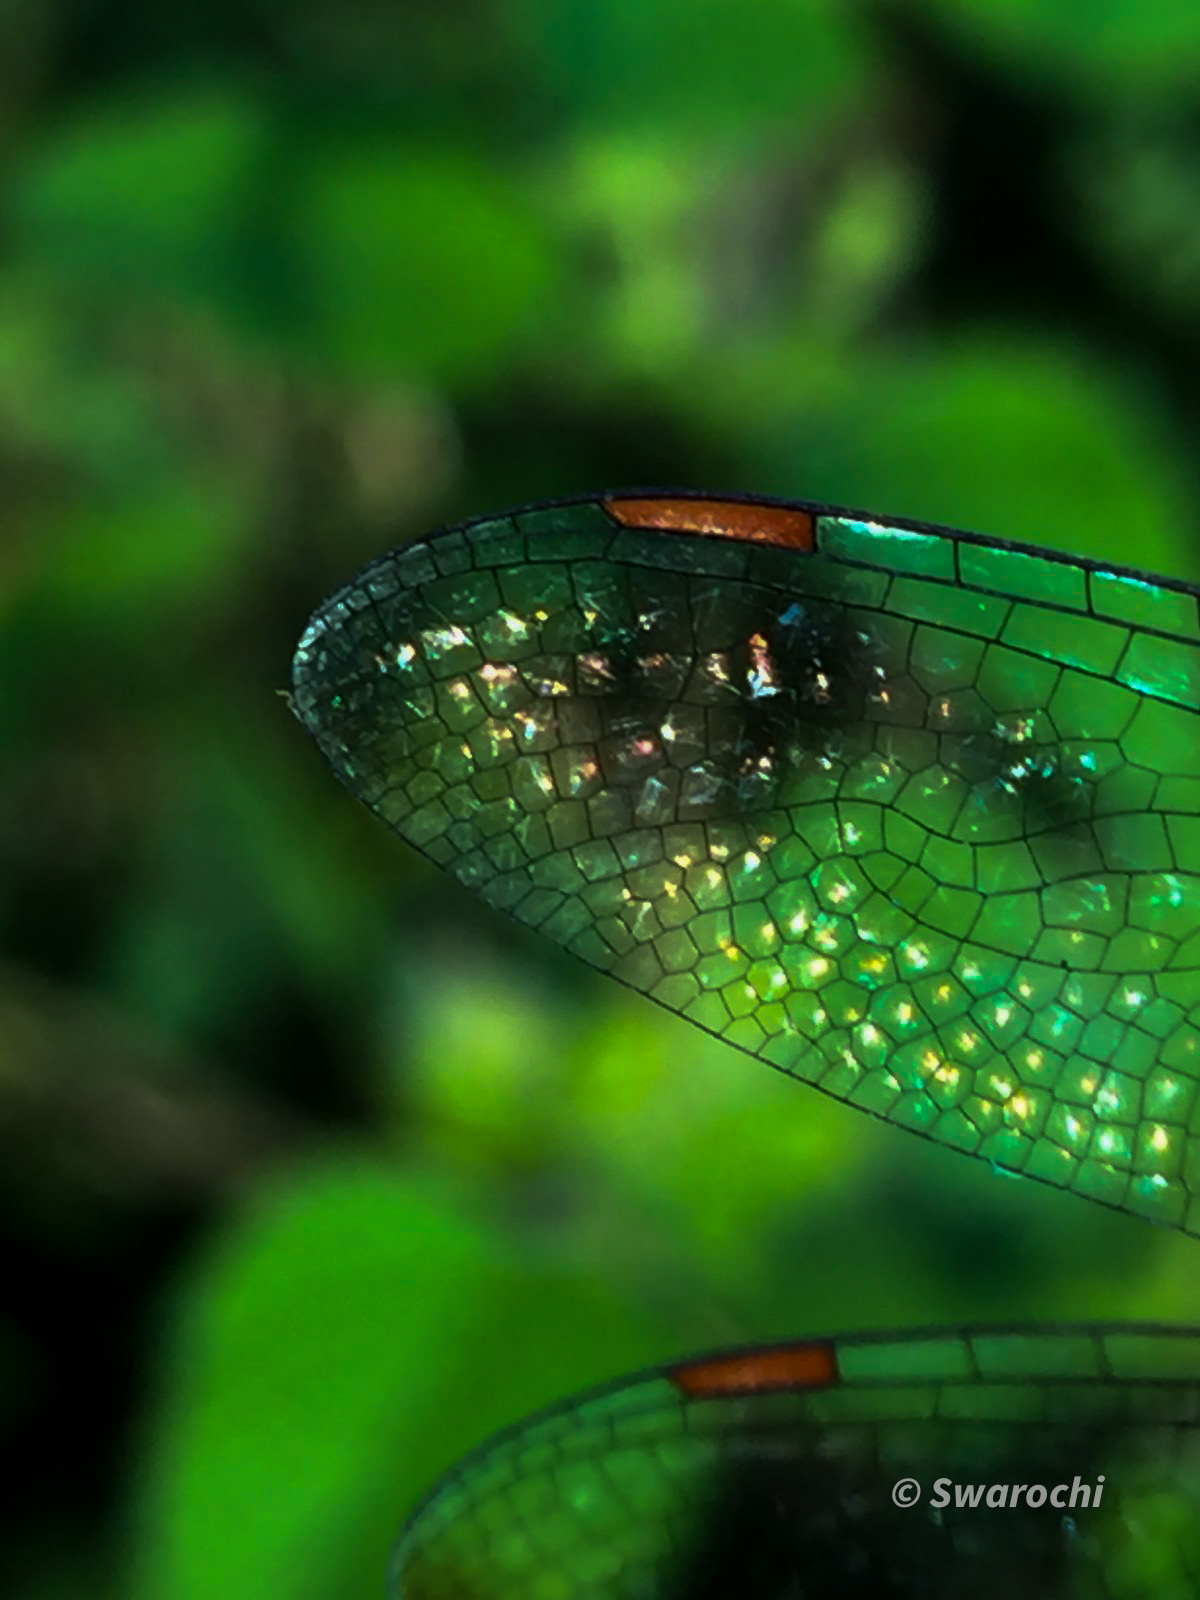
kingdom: Animalia
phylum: Arthropoda
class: Insecta
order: Odonata
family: Libellulidae
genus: Pantala
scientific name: Pantala flavescens
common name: Wandering glider
